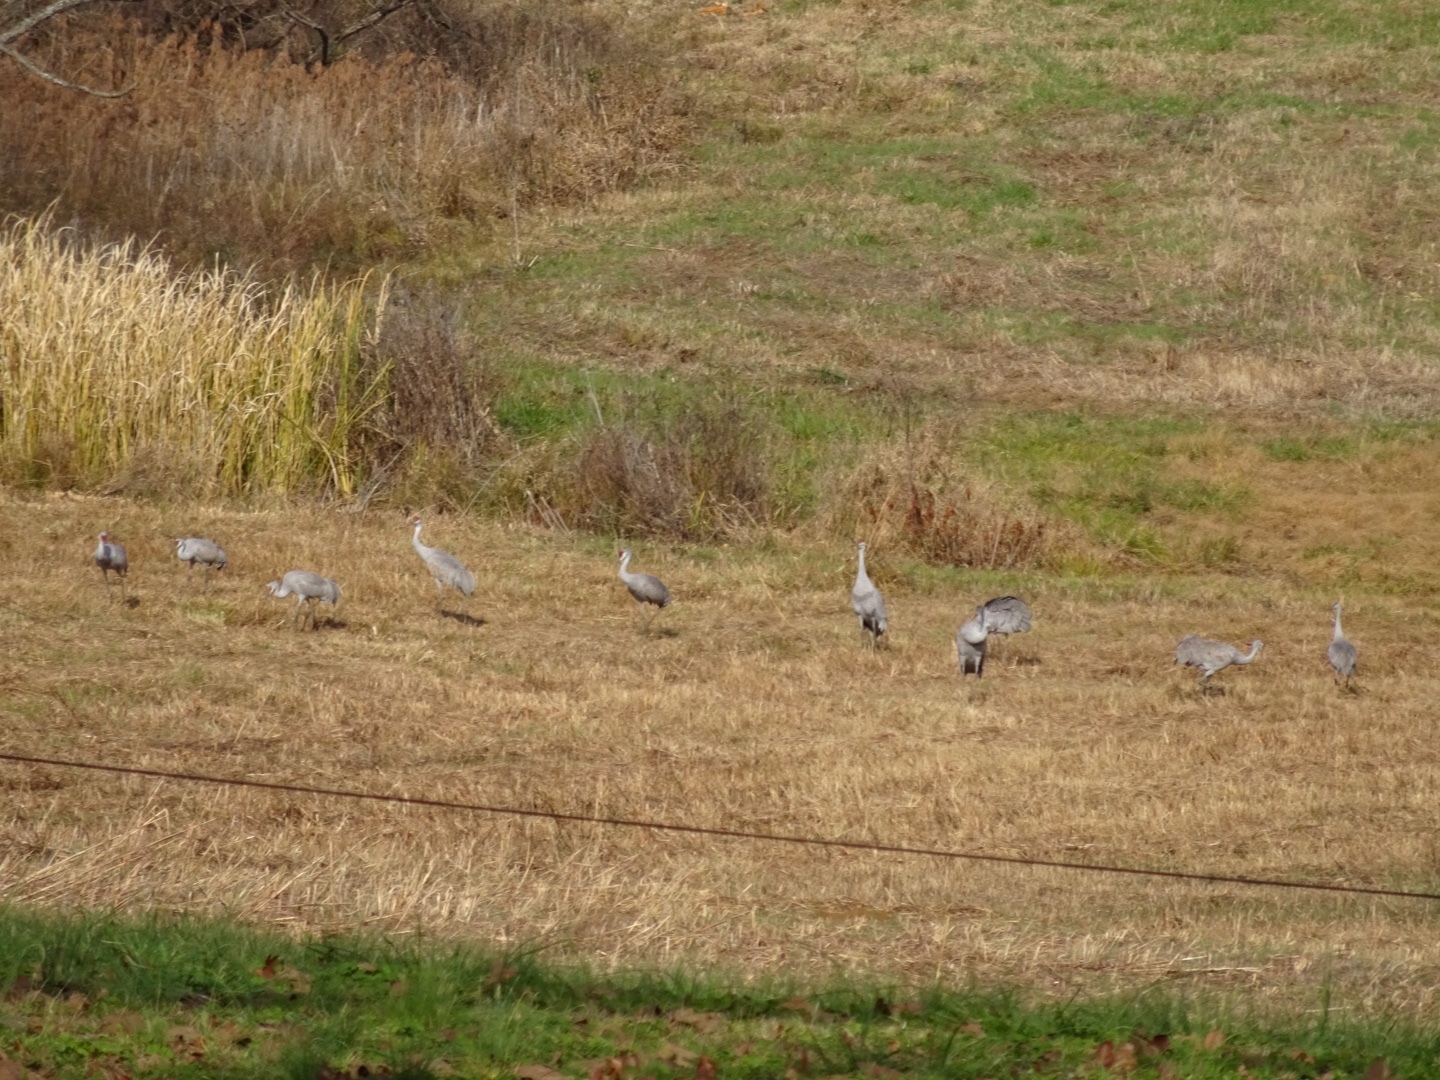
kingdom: Animalia
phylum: Chordata
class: Aves
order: Gruiformes
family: Gruidae
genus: Grus
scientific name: Grus canadensis
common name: Sandhill crane
